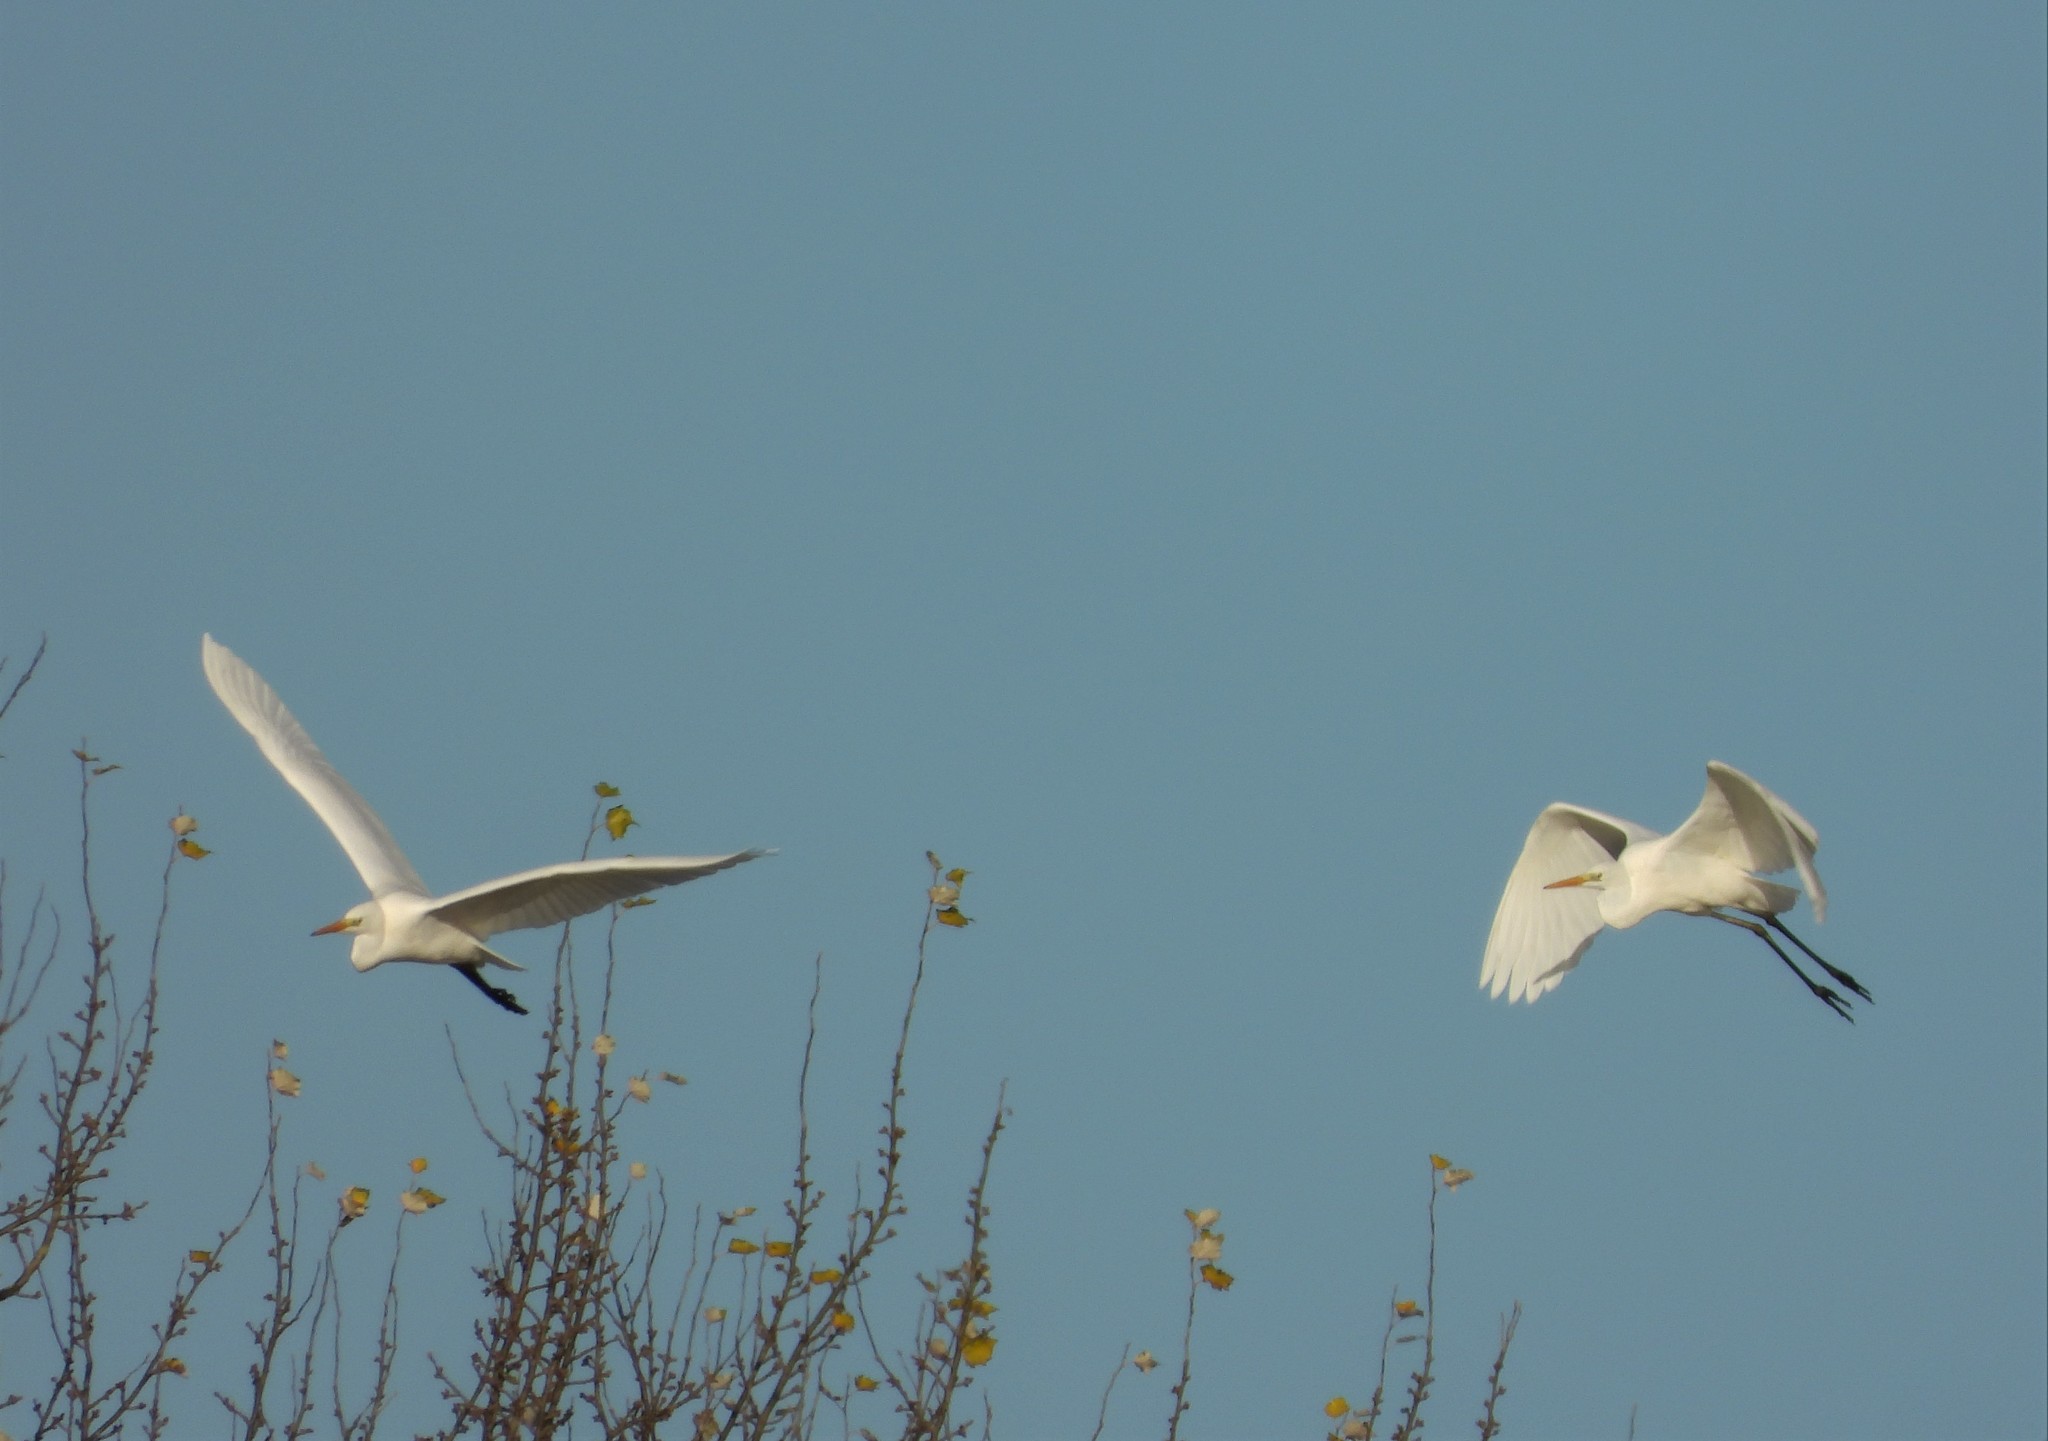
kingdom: Animalia
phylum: Chordata
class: Aves
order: Pelecaniformes
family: Ardeidae
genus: Ardea
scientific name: Ardea alba
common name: Great egret
